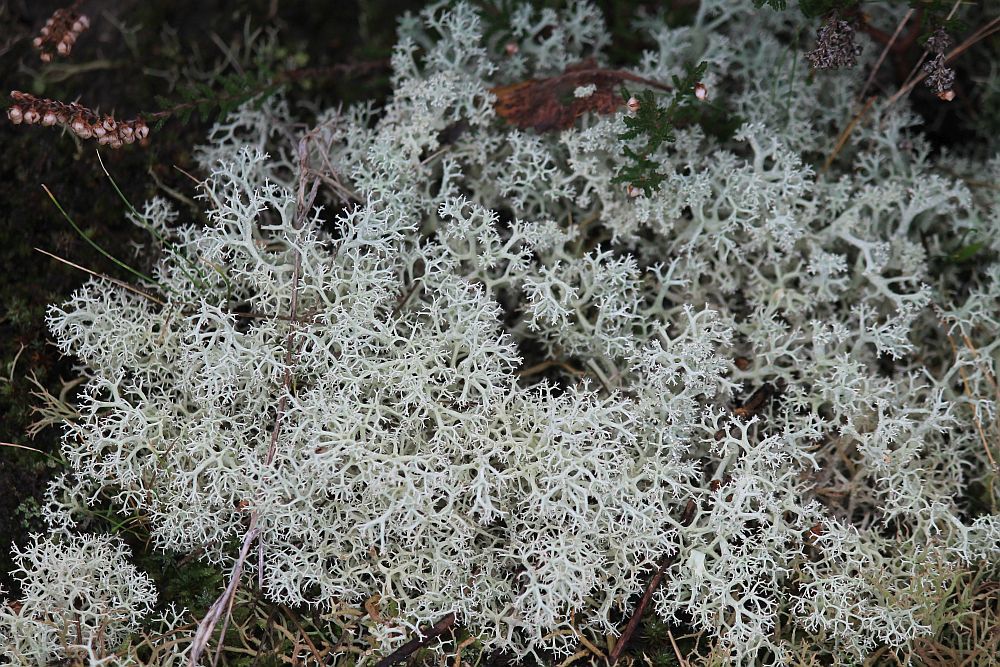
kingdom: Fungi
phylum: Ascomycota
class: Lecanoromycetes
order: Lecanorales
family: Cladoniaceae
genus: Cladonia
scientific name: Cladonia portentosa
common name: Reindeer lichen
